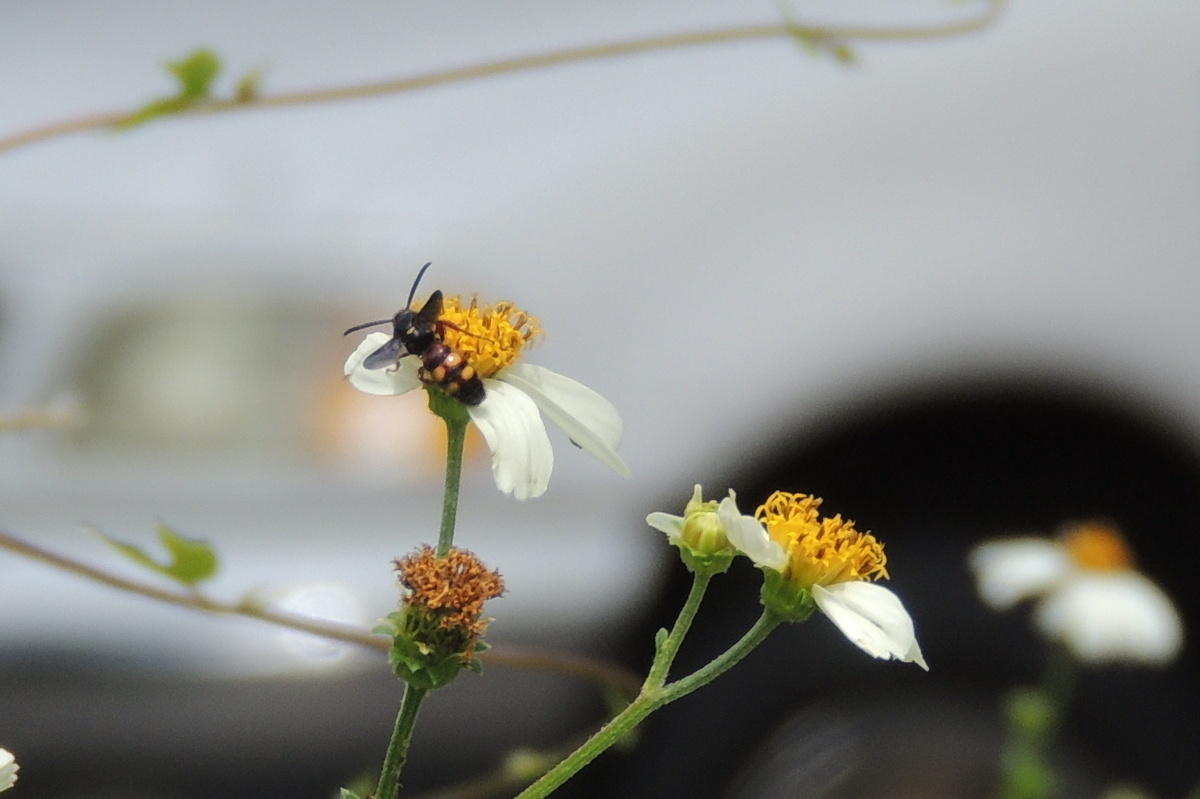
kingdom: Animalia
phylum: Arthropoda
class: Insecta
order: Hymenoptera
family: Scoliidae
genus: Scolia
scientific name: Scolia nobilitata
